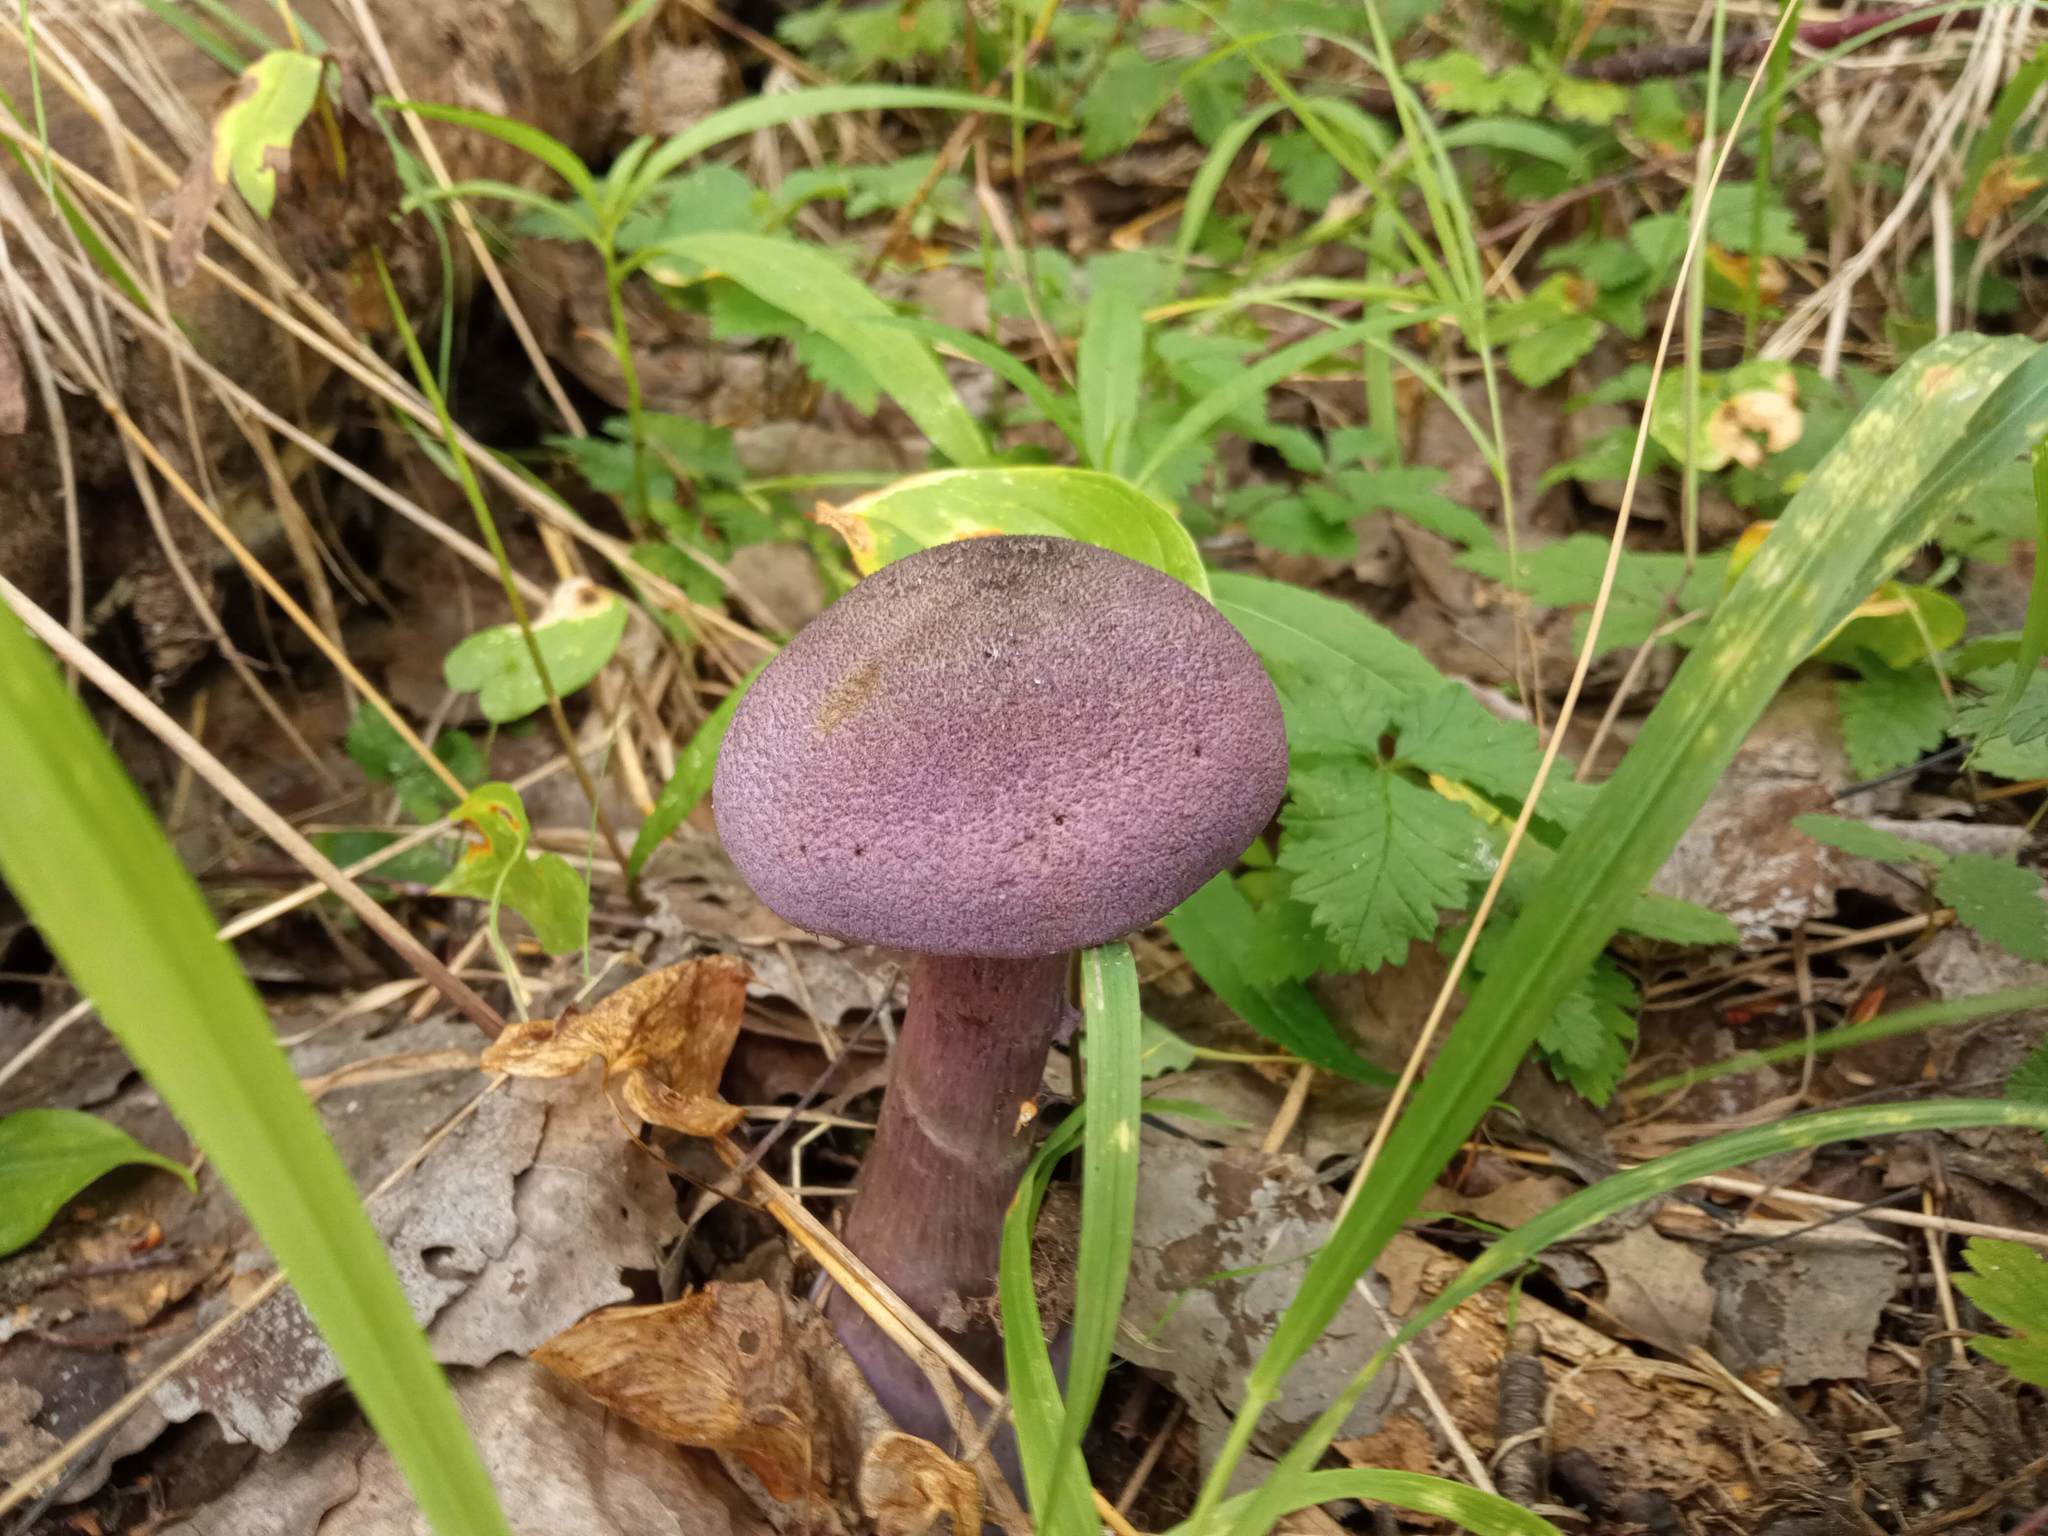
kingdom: Fungi
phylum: Basidiomycota
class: Agaricomycetes
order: Agaricales
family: Cortinariaceae
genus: Cortinarius
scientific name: Cortinarius violaceus
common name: Violet webcap
